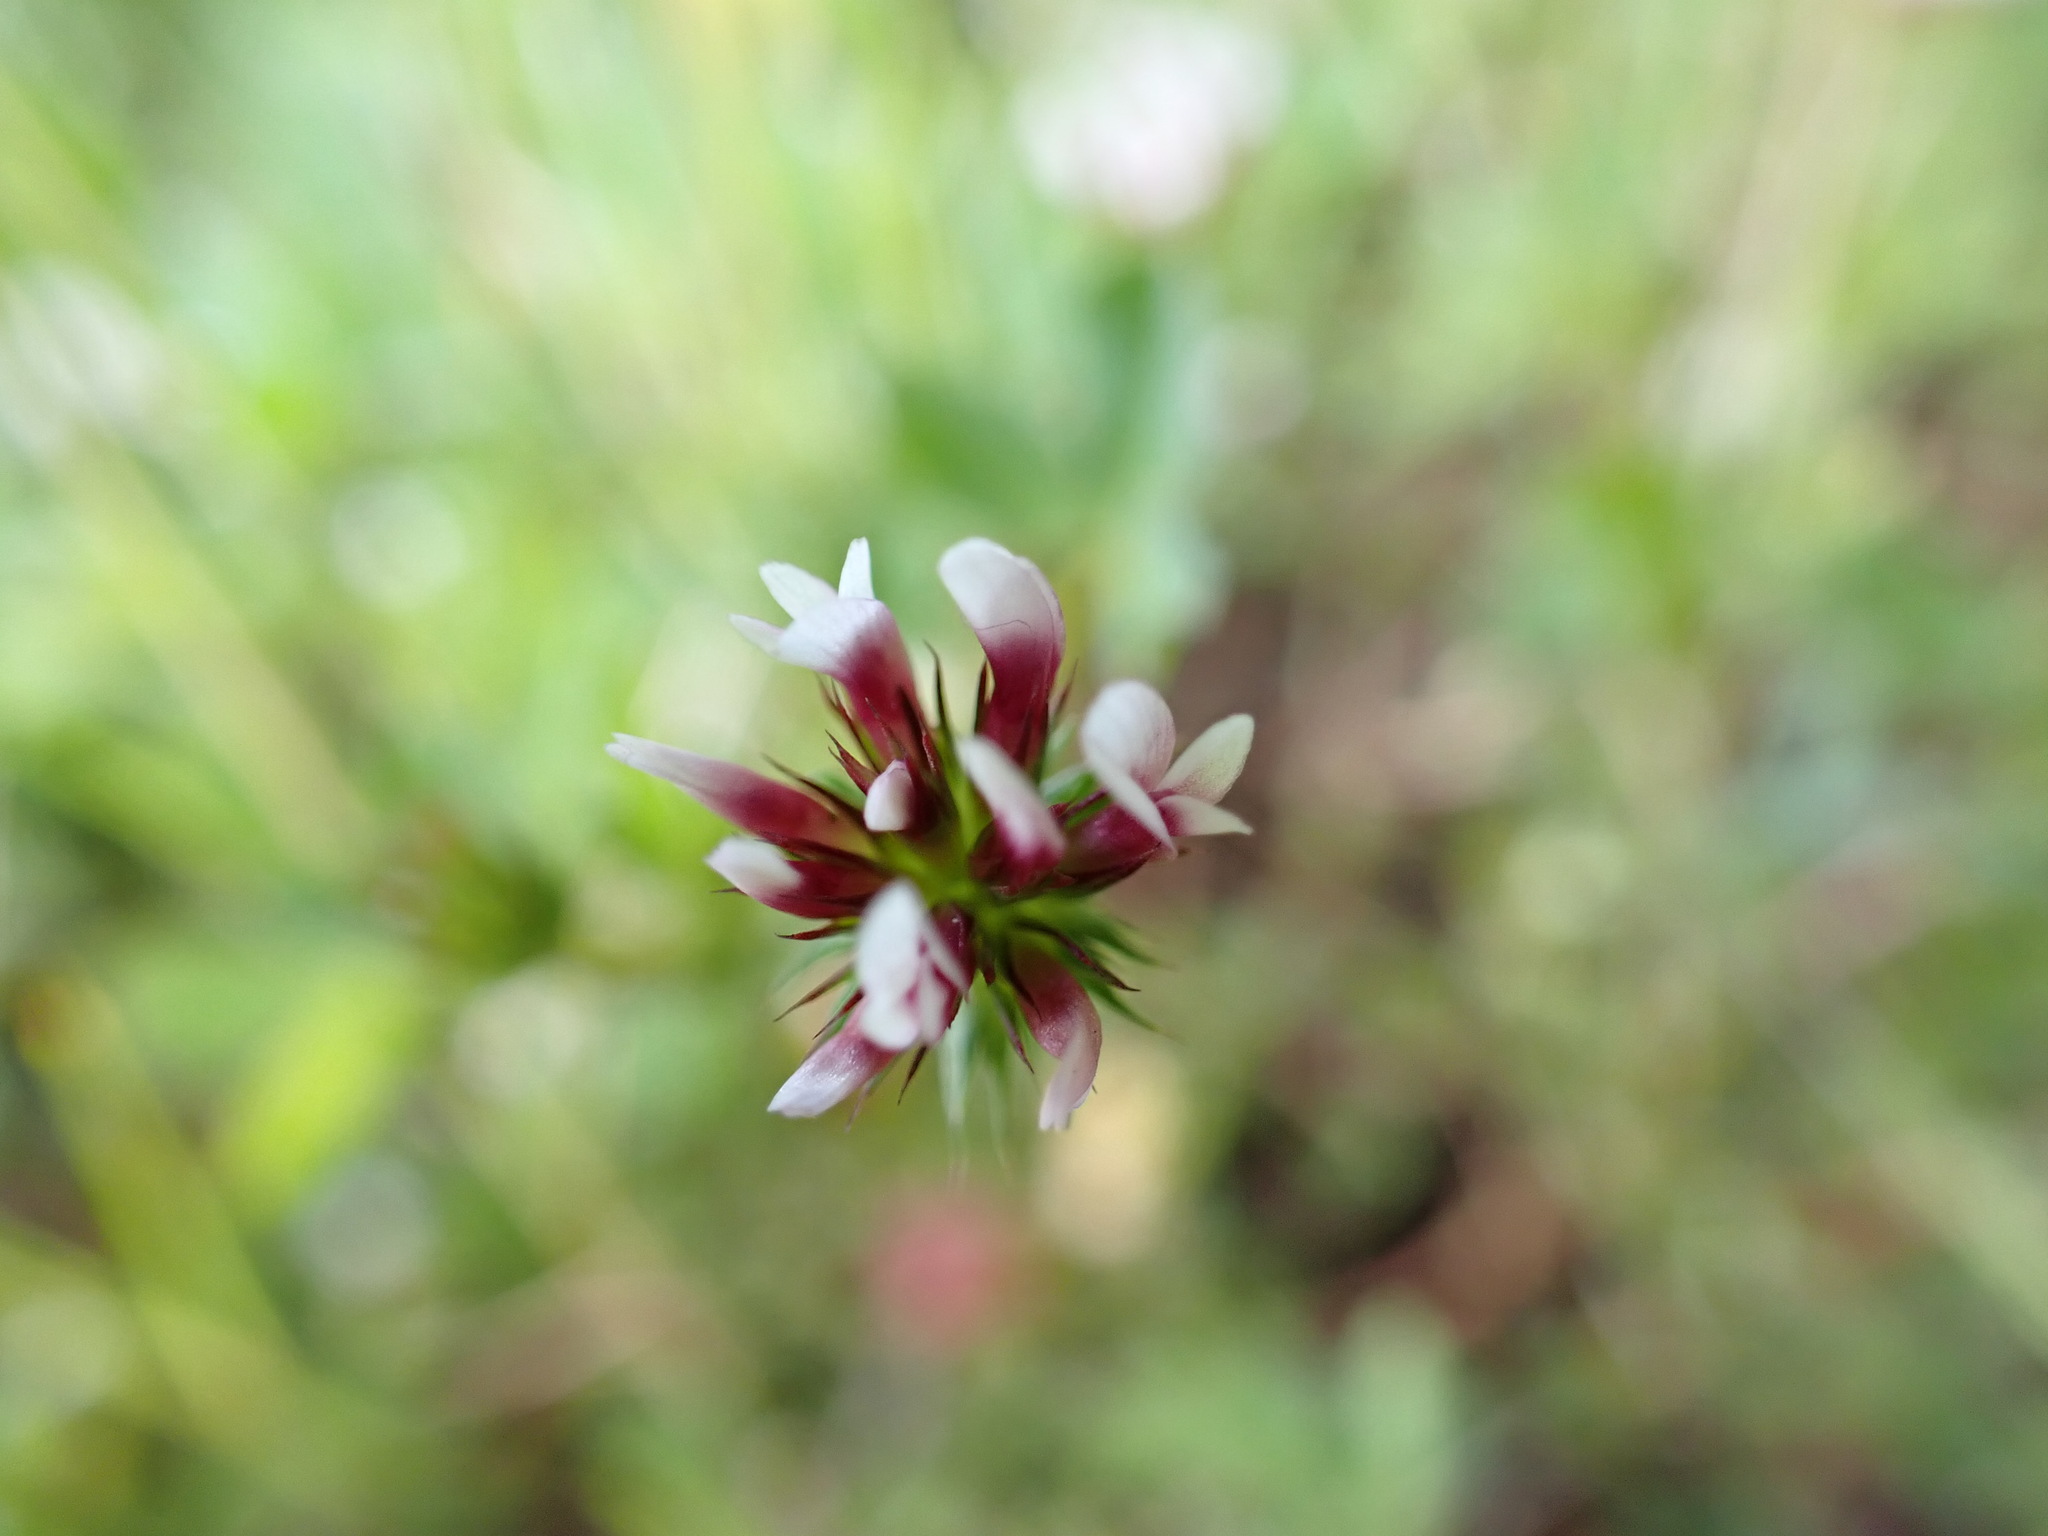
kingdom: Plantae
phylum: Tracheophyta
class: Magnoliopsida
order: Fabales
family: Fabaceae
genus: Trifolium
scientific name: Trifolium variegatum
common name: Whitetip clover
